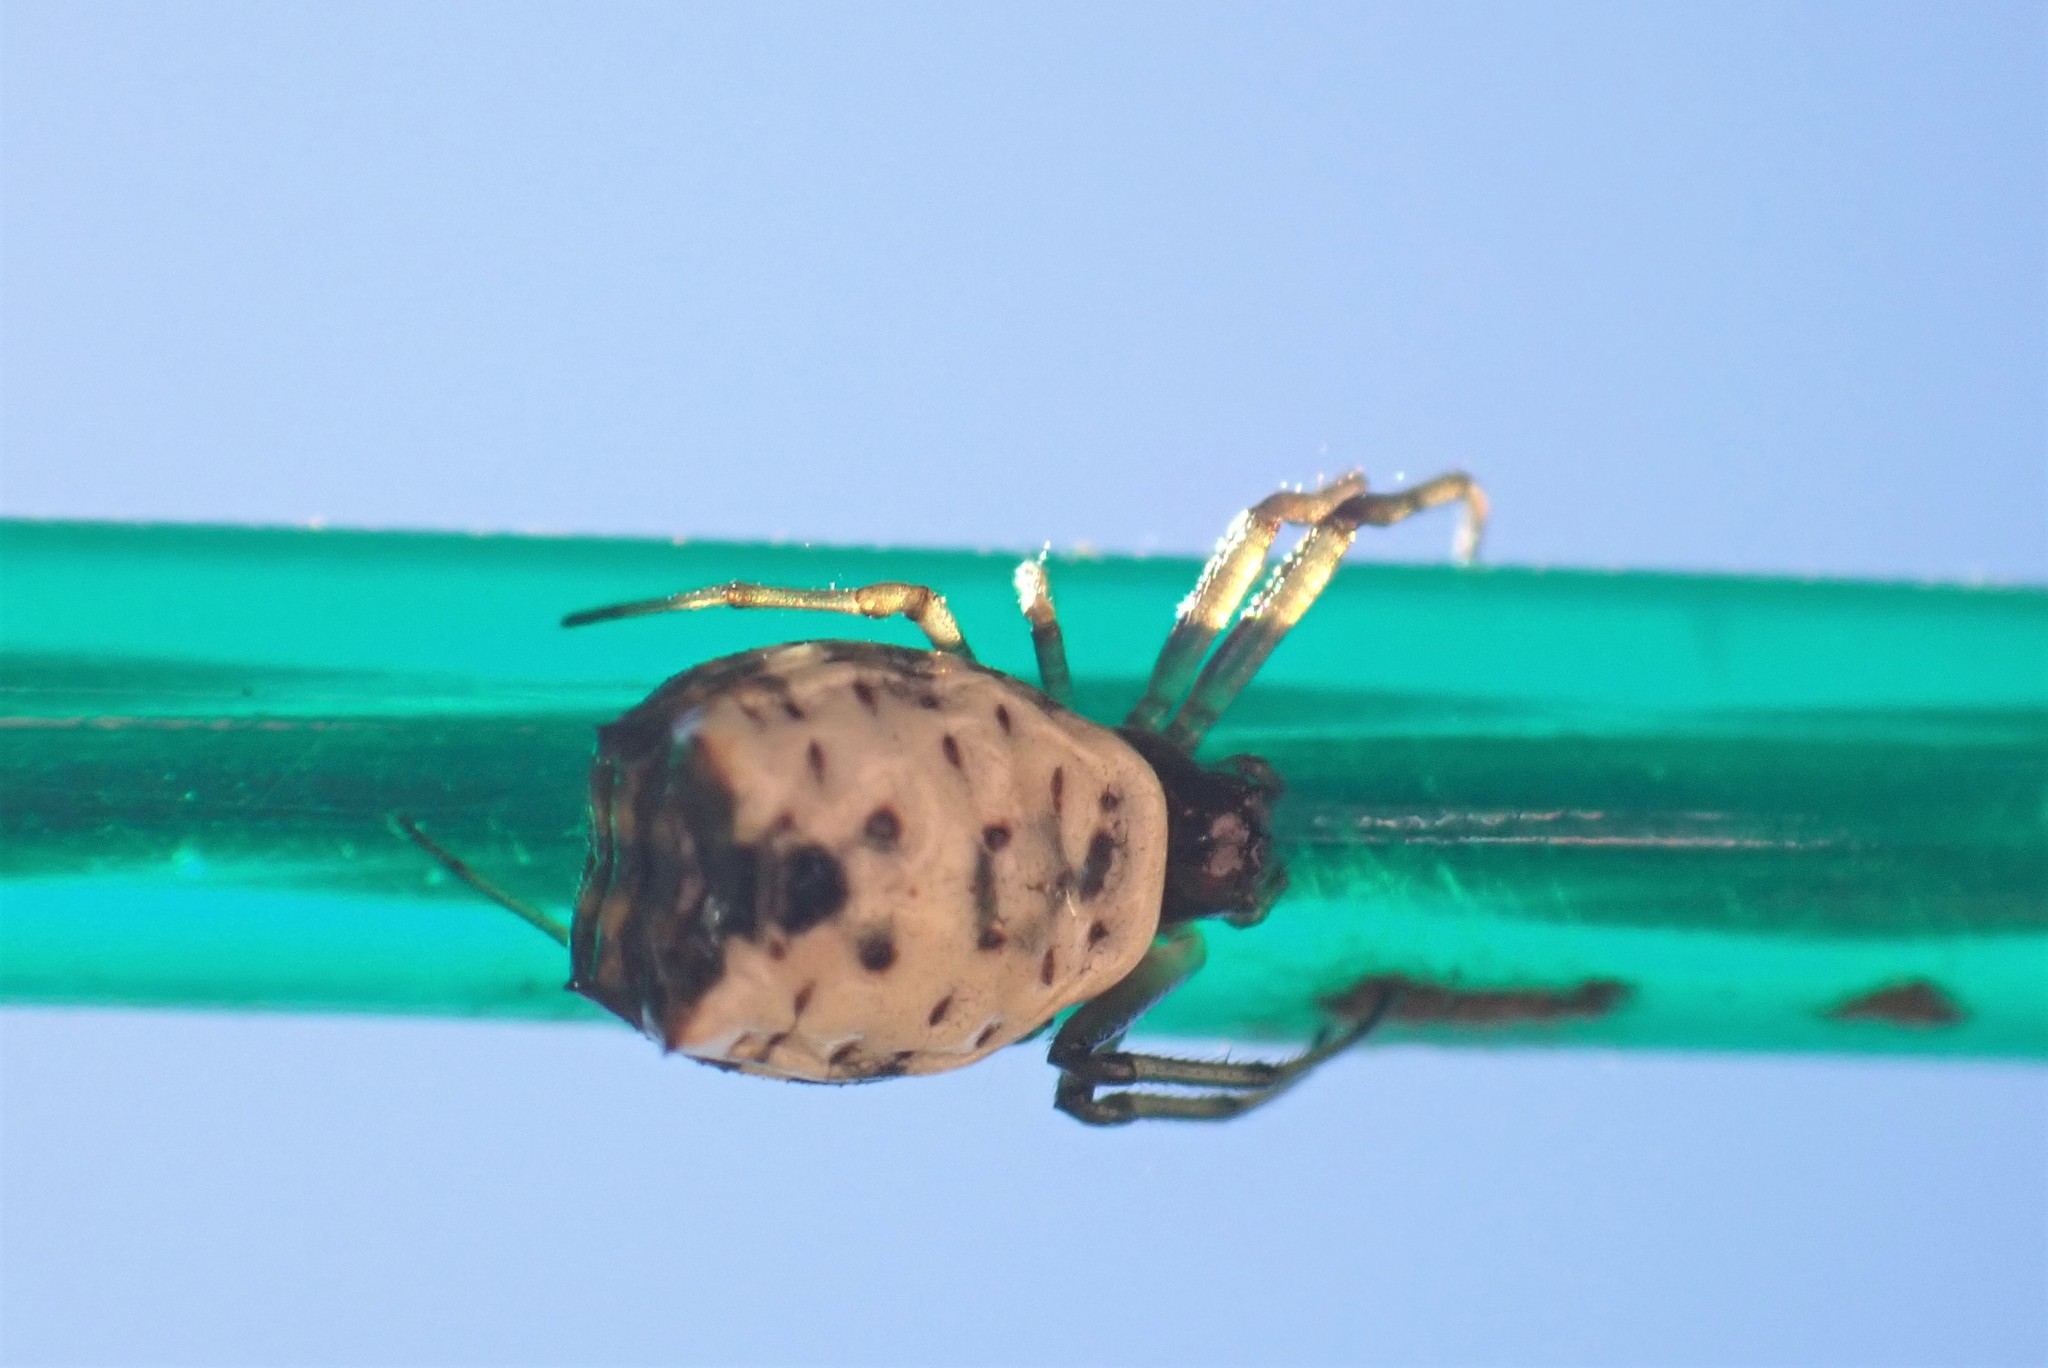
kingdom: Animalia
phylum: Arthropoda
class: Arachnida
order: Araneae
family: Araneidae
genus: Micrathena
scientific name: Micrathena mitrata
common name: Orb weavers
